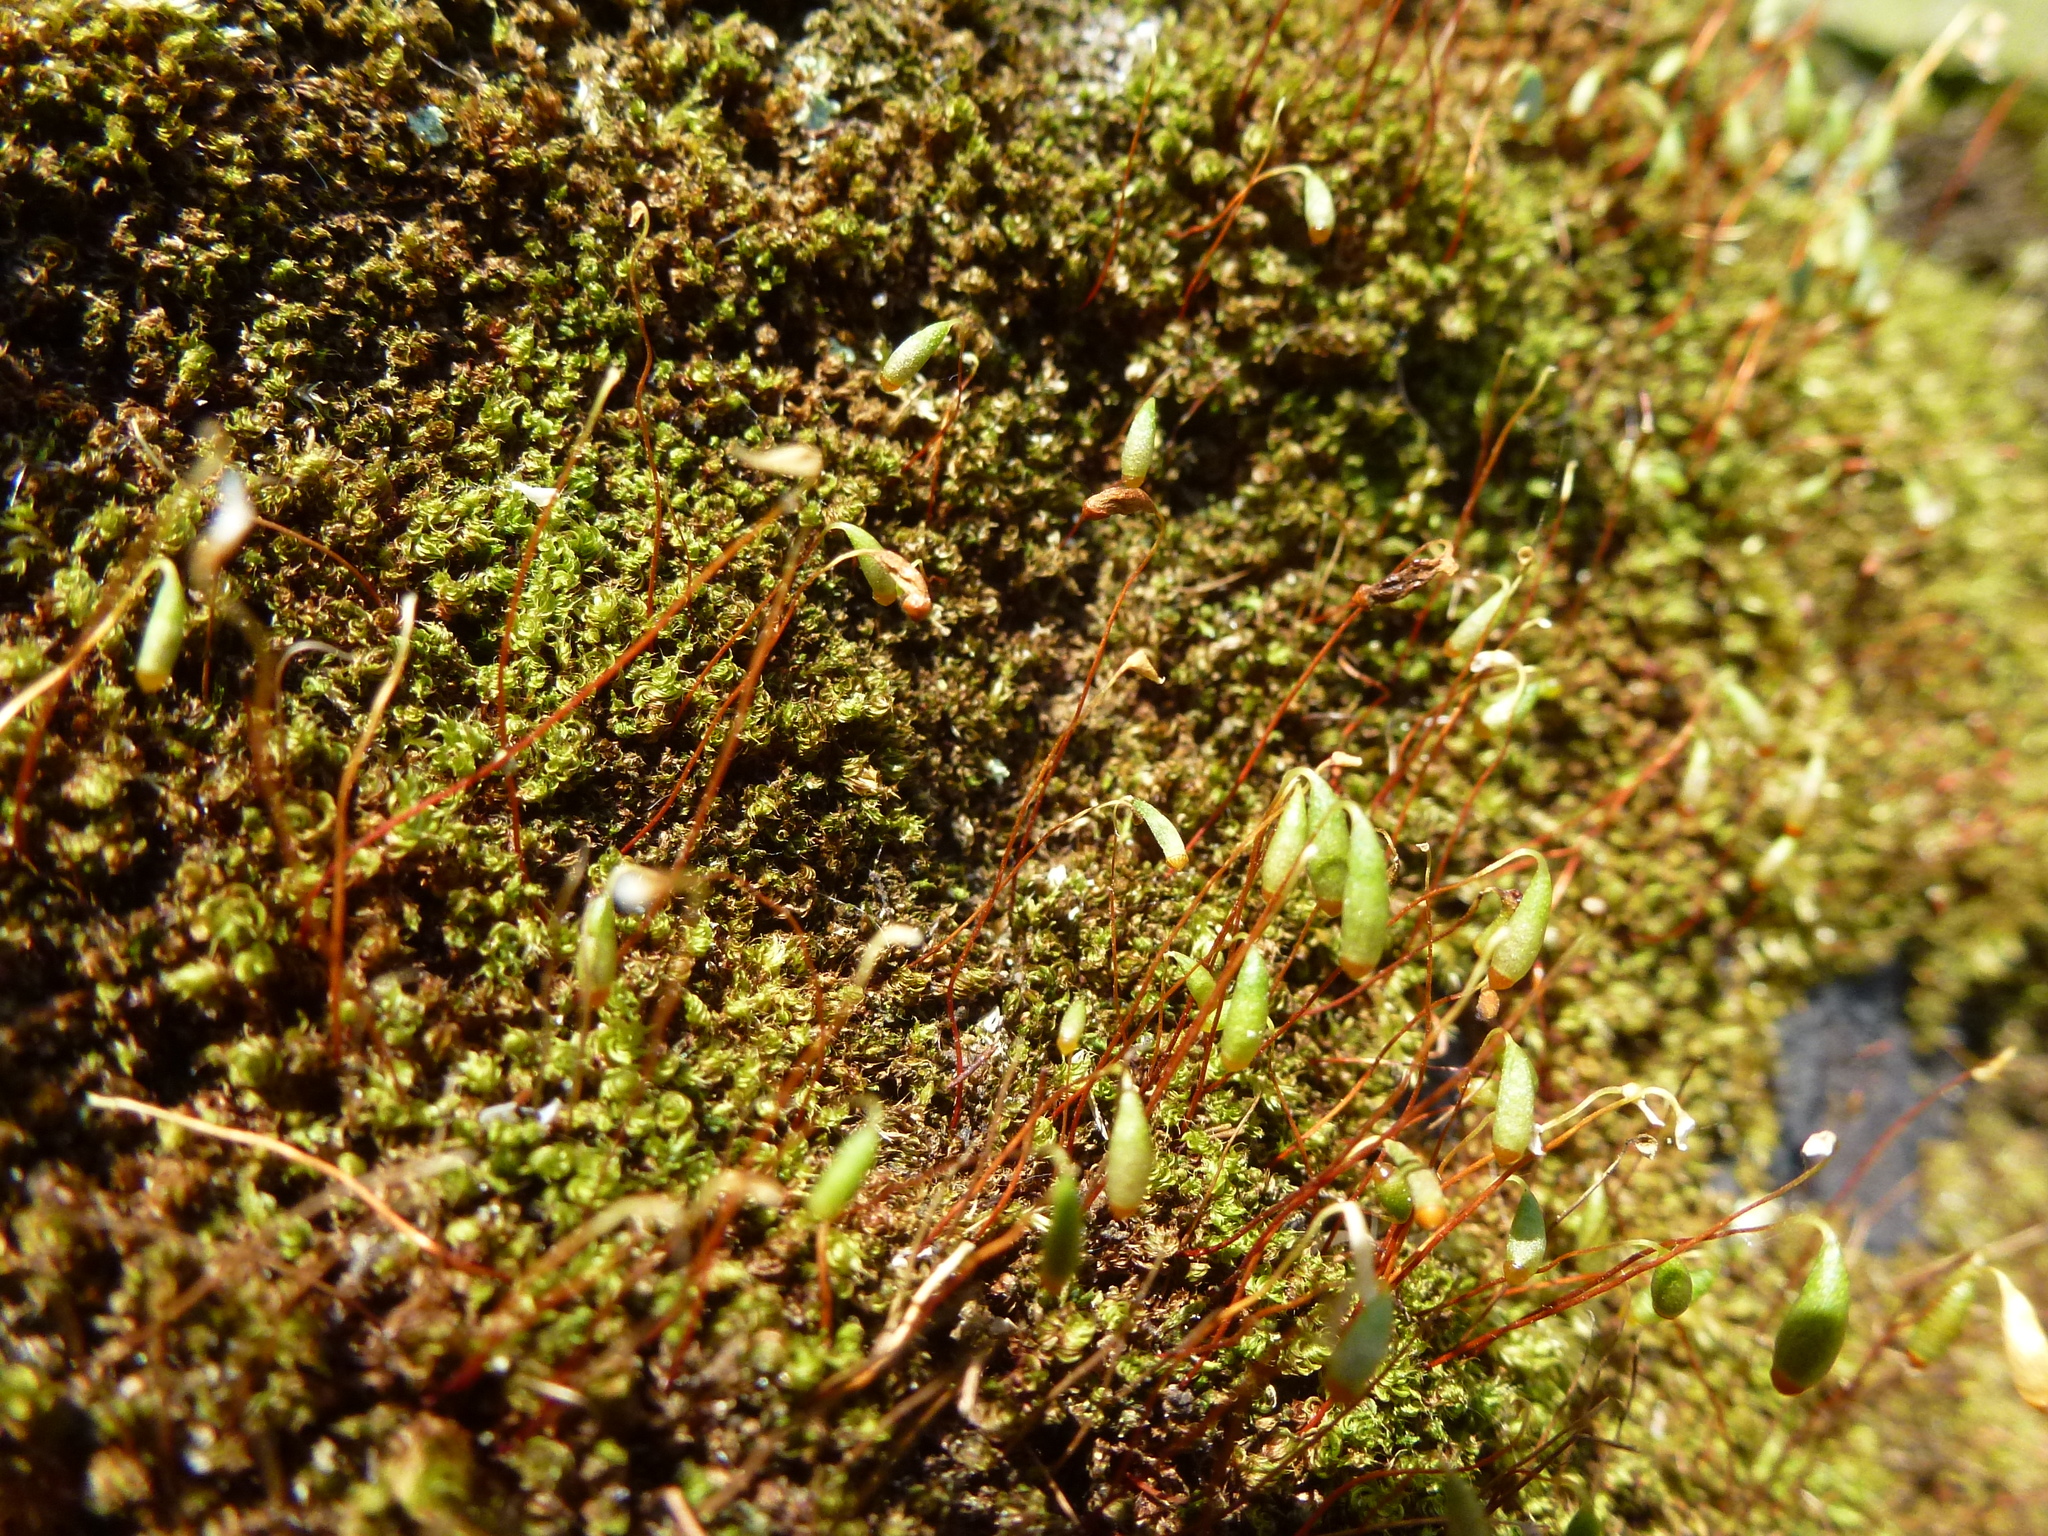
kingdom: Plantae
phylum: Bryophyta
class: Bryopsida
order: Bryales
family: Bryaceae
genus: Rosulabryum
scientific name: Rosulabryum capillare
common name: Capillary thread-moss
